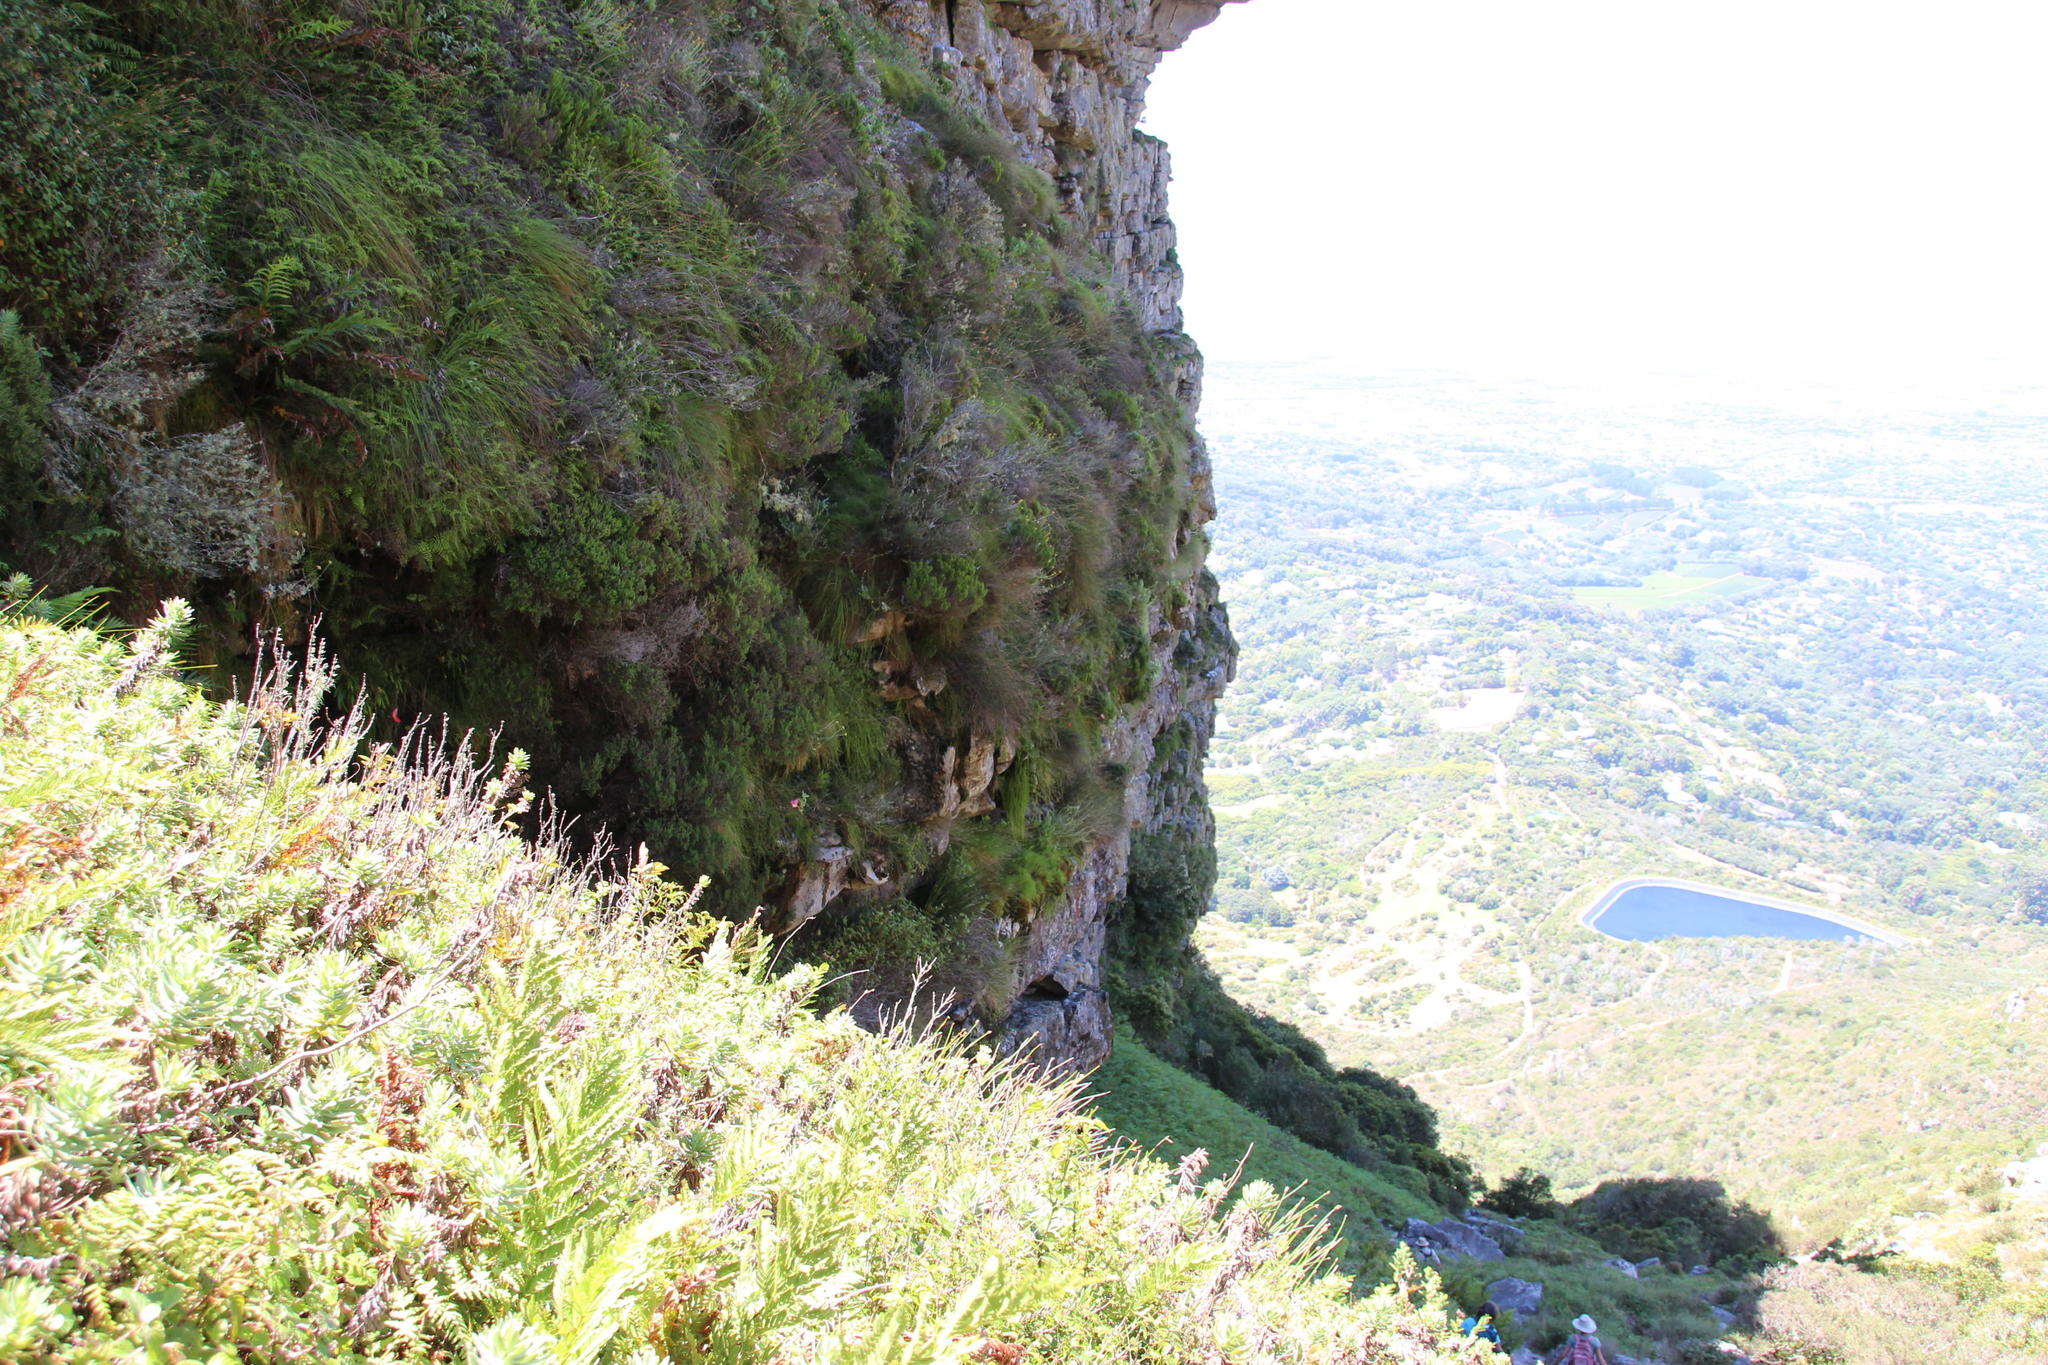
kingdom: Plantae
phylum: Tracheophyta
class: Liliopsida
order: Asparagales
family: Orchidaceae
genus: Disa
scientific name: Disa uniflora
